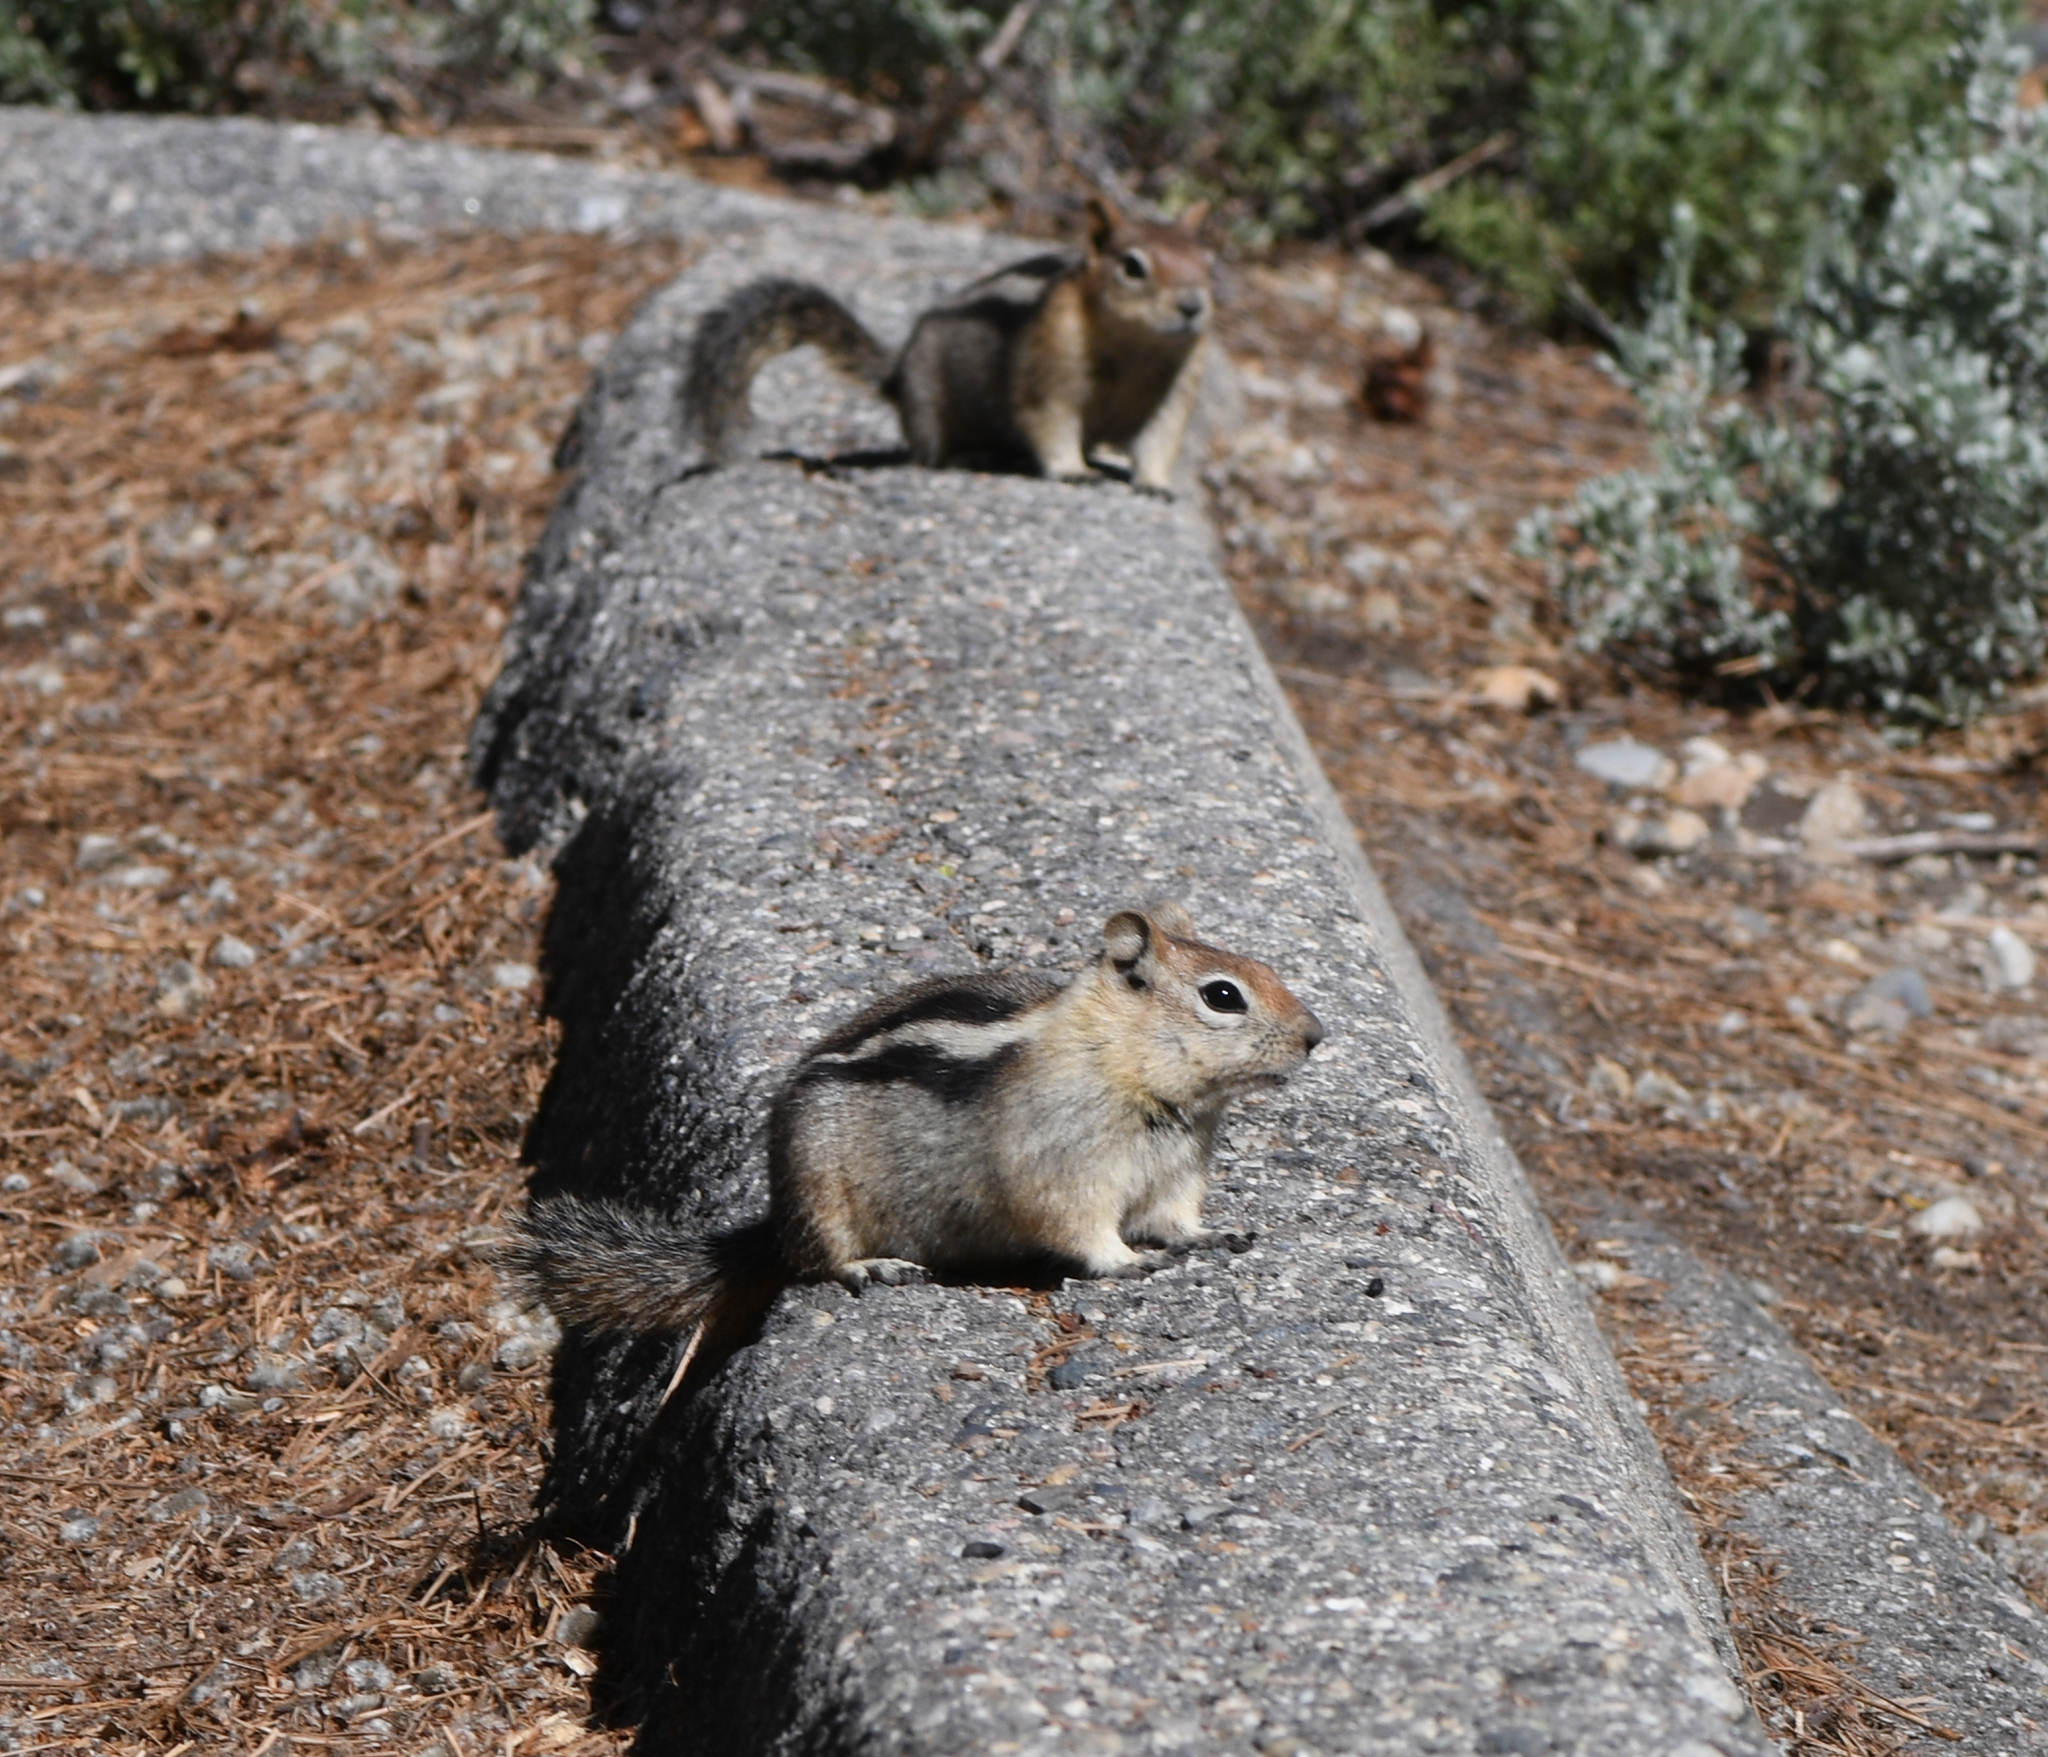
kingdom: Animalia
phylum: Chordata
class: Mammalia
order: Rodentia
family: Sciuridae
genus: Callospermophilus
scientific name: Callospermophilus lateralis
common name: Golden-mantled ground squirrel
